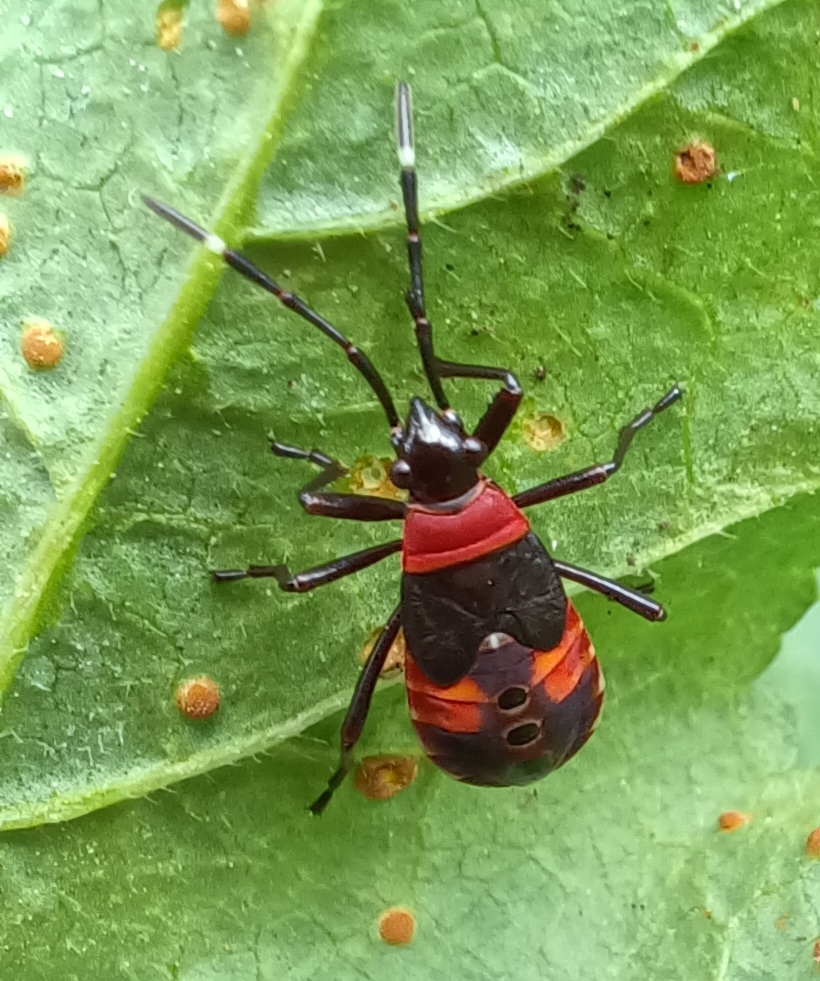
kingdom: Animalia
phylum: Arthropoda
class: Insecta
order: Hemiptera
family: Pyrrhocoridae
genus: Dindymus
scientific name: Dindymus
